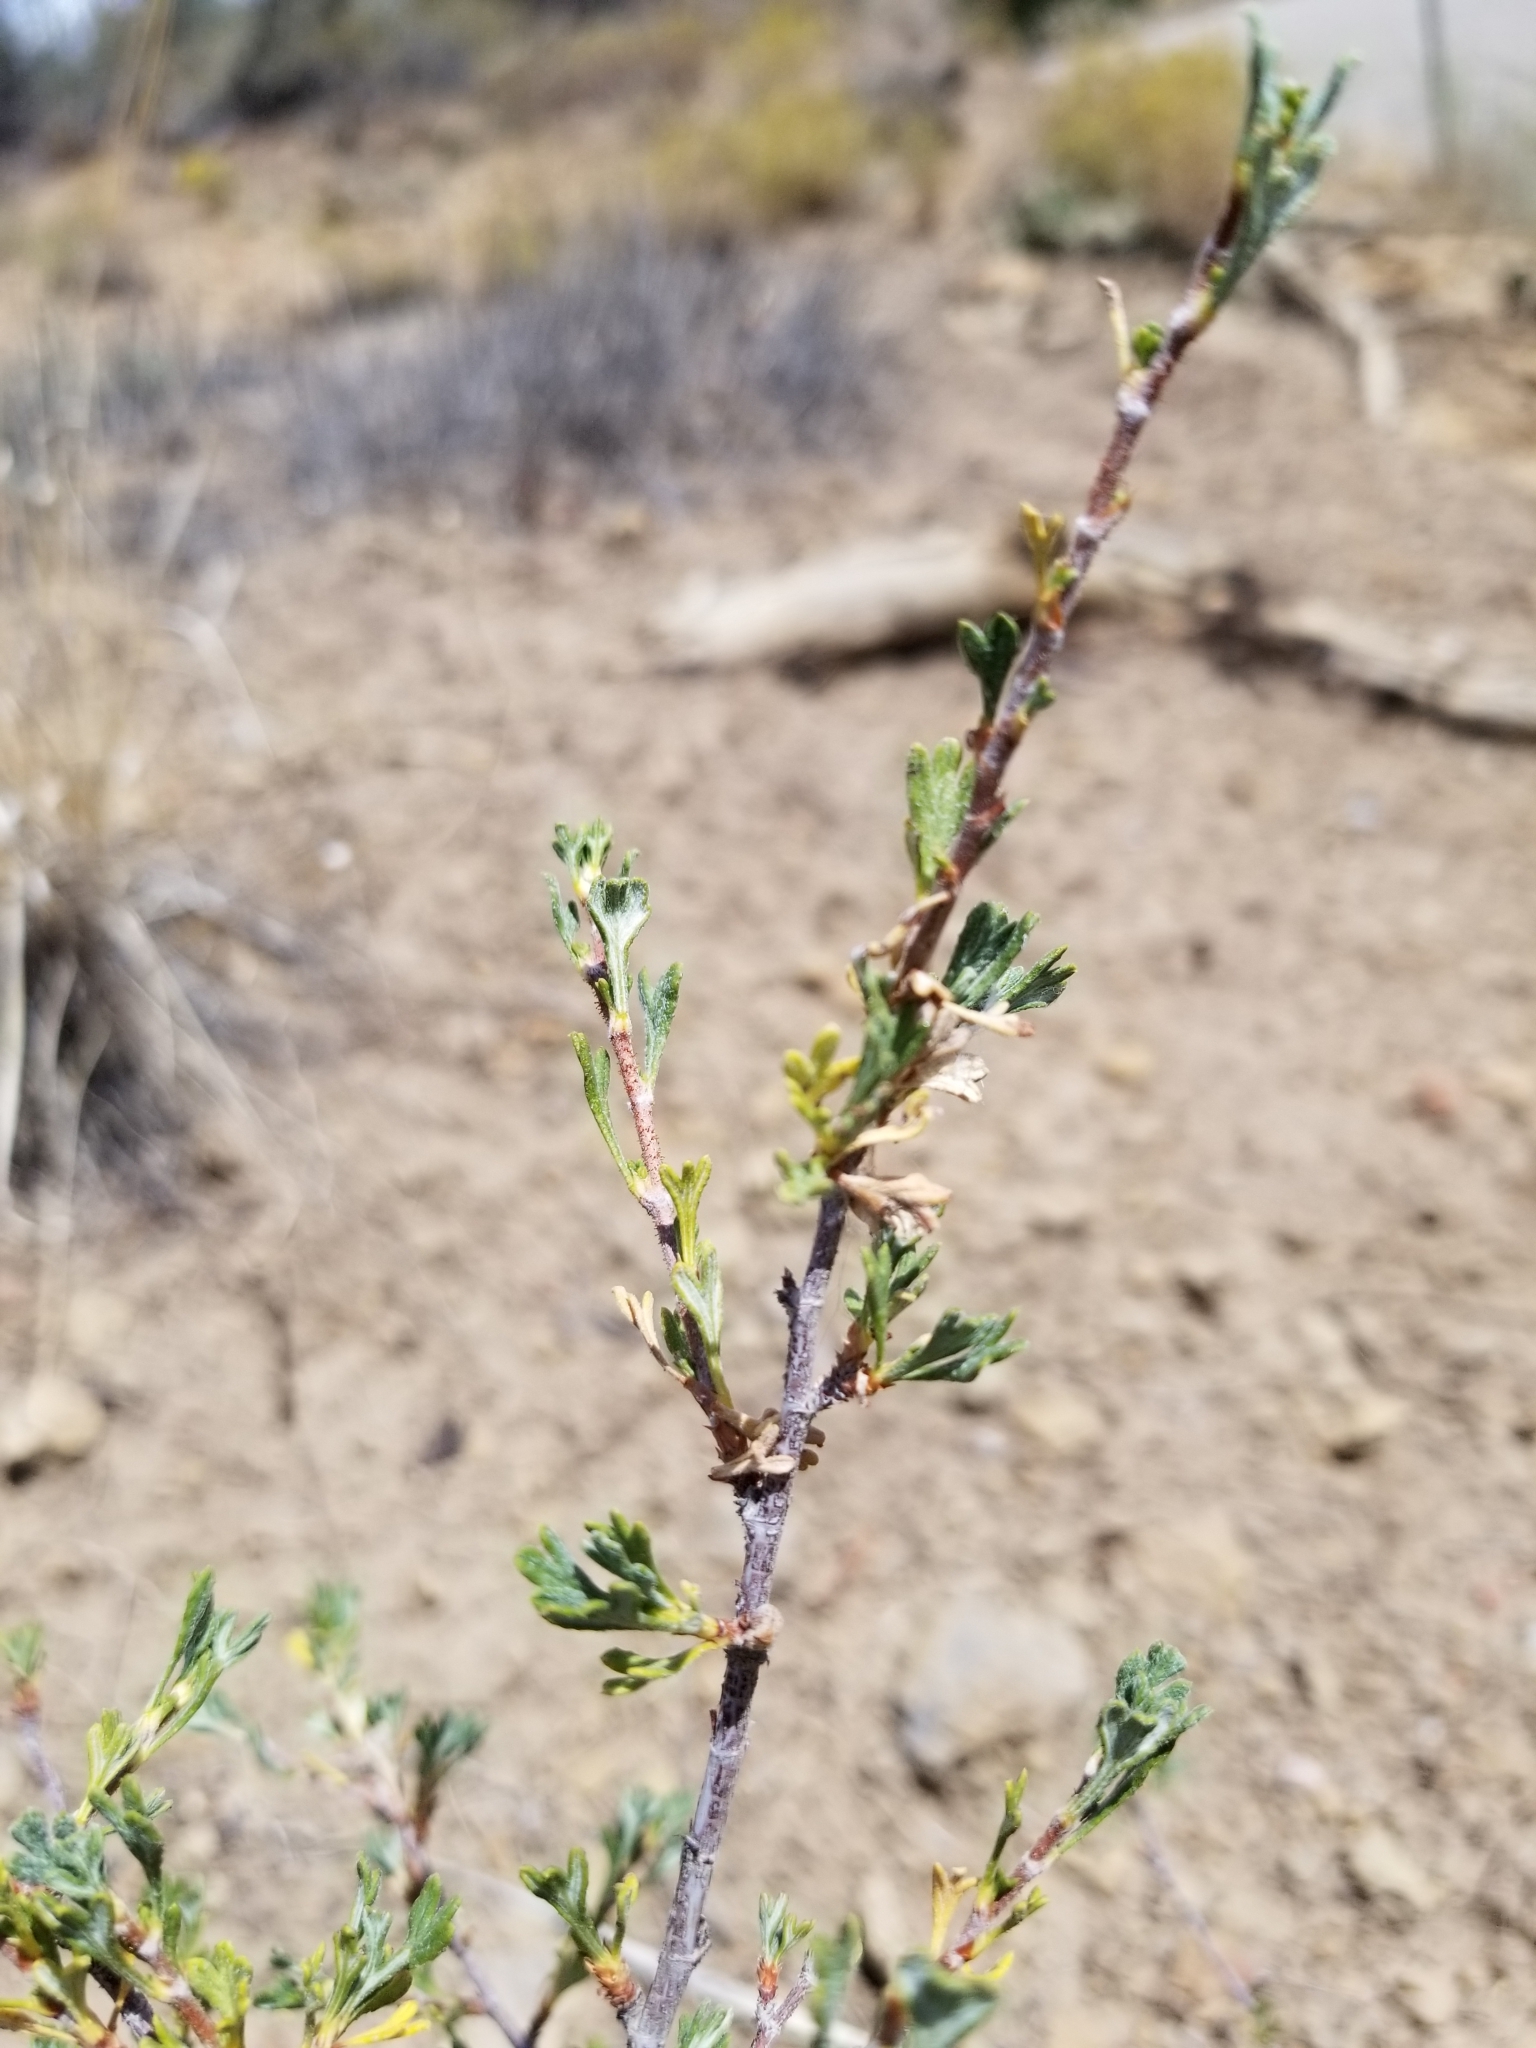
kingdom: Plantae
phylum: Tracheophyta
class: Magnoliopsida
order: Rosales
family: Rosaceae
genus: Purshia
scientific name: Purshia tridentata
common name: Antelope bitterbrush
